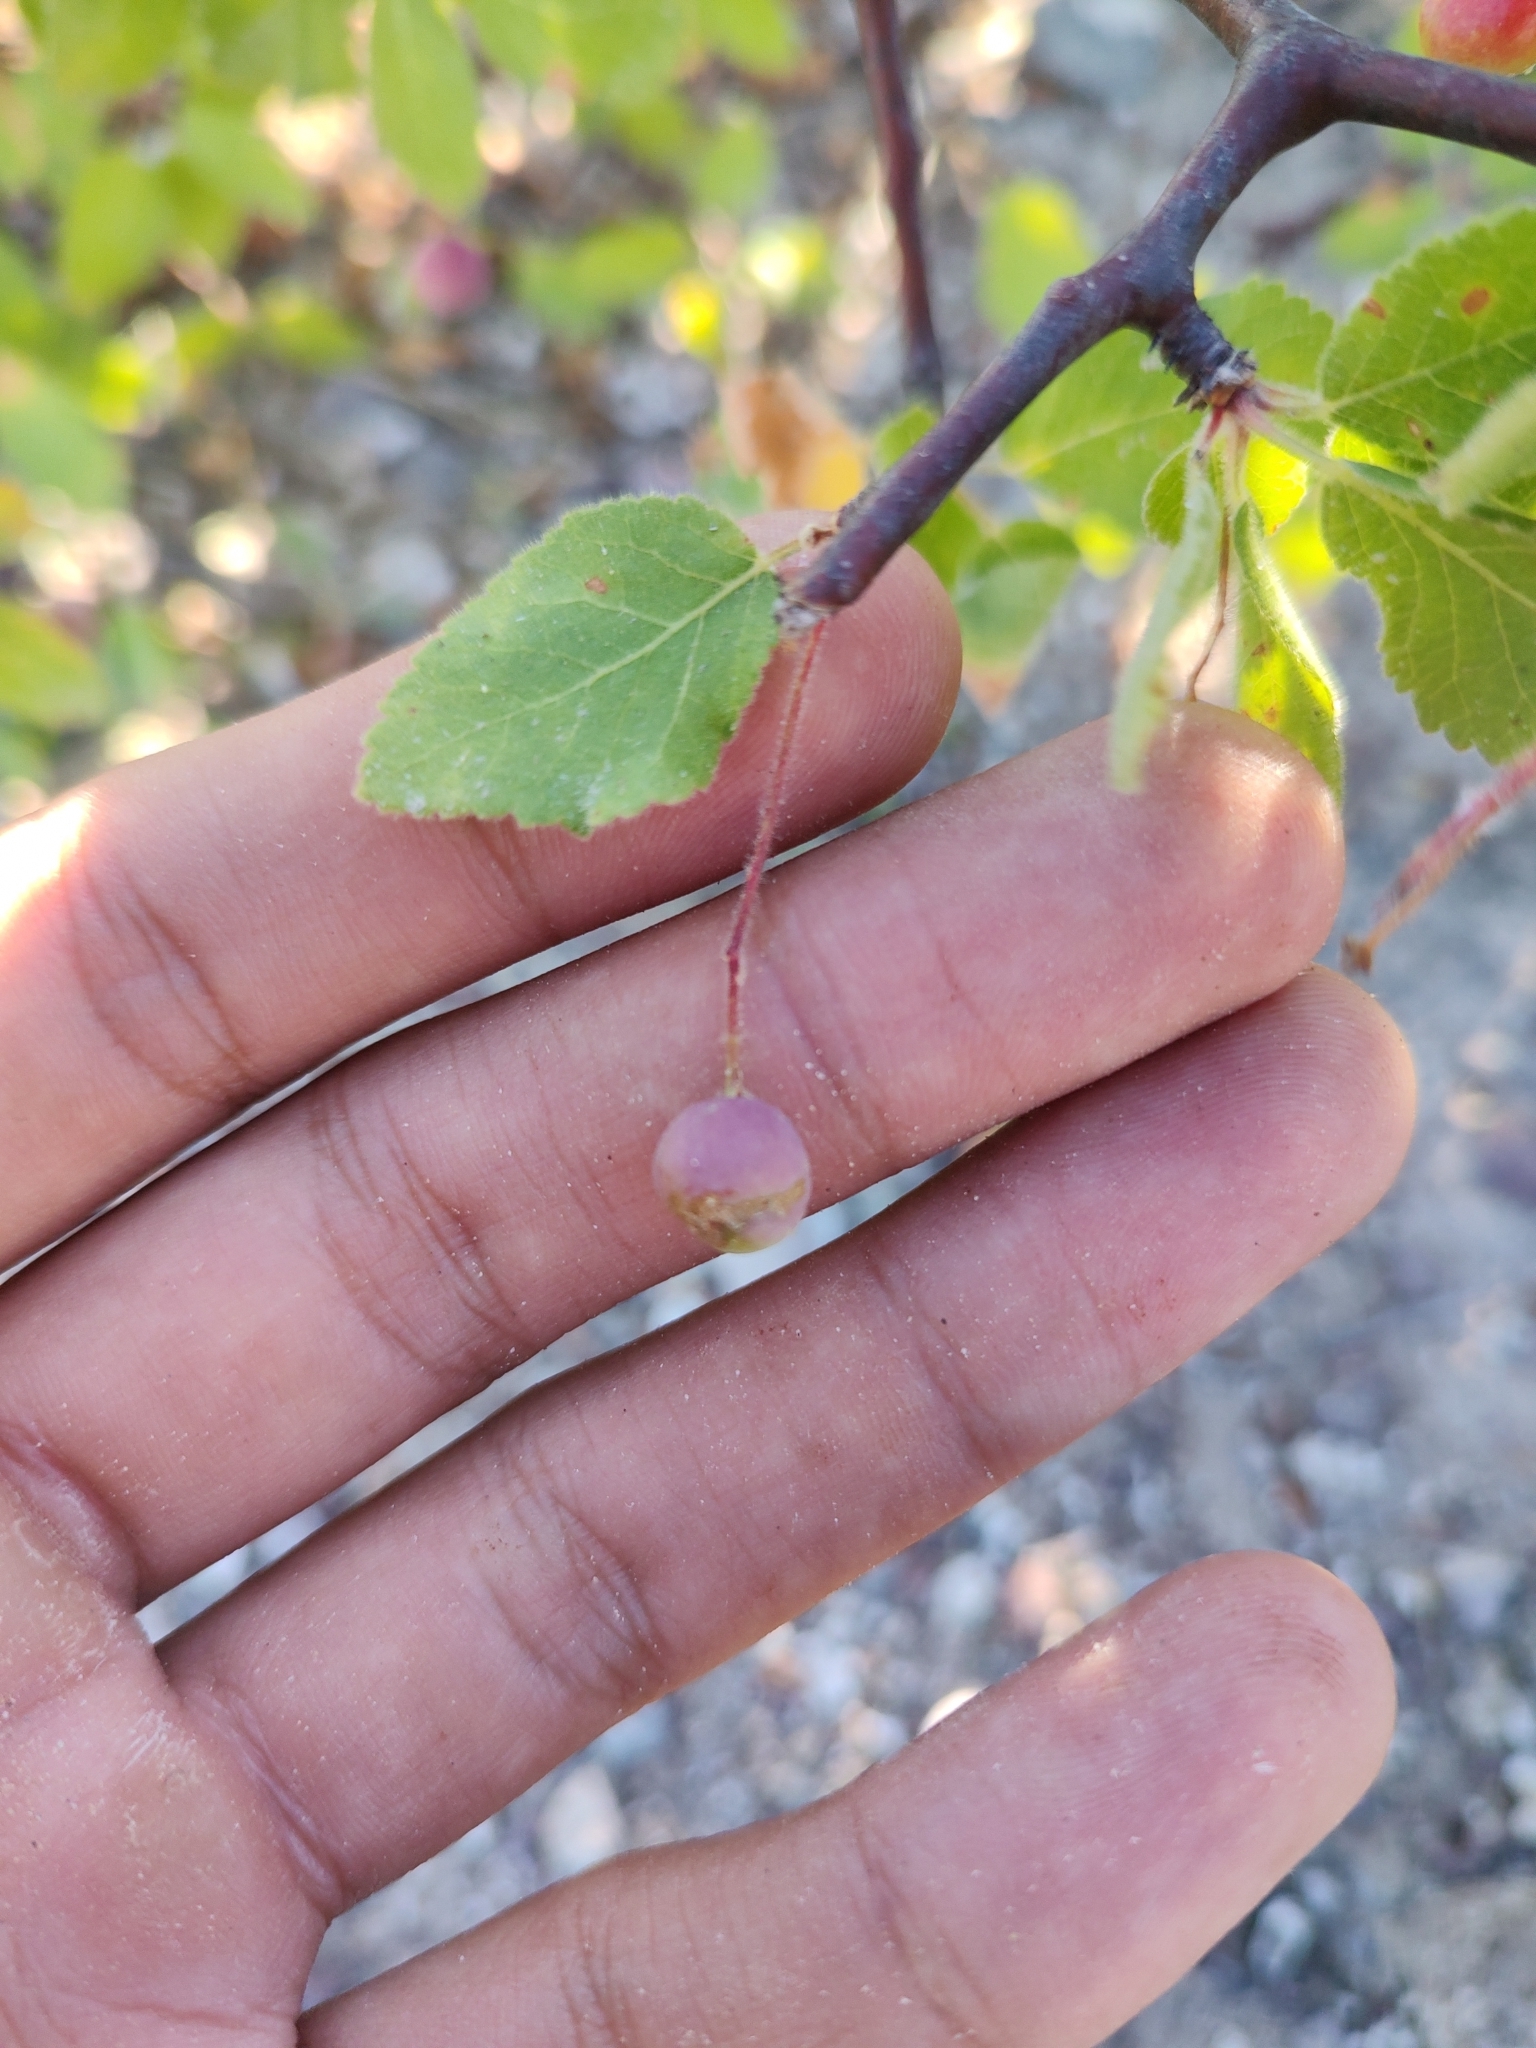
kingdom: Plantae
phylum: Tracheophyta
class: Magnoliopsida
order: Sapindales
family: Burseraceae
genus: Bursera
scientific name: Bursera epinnata
